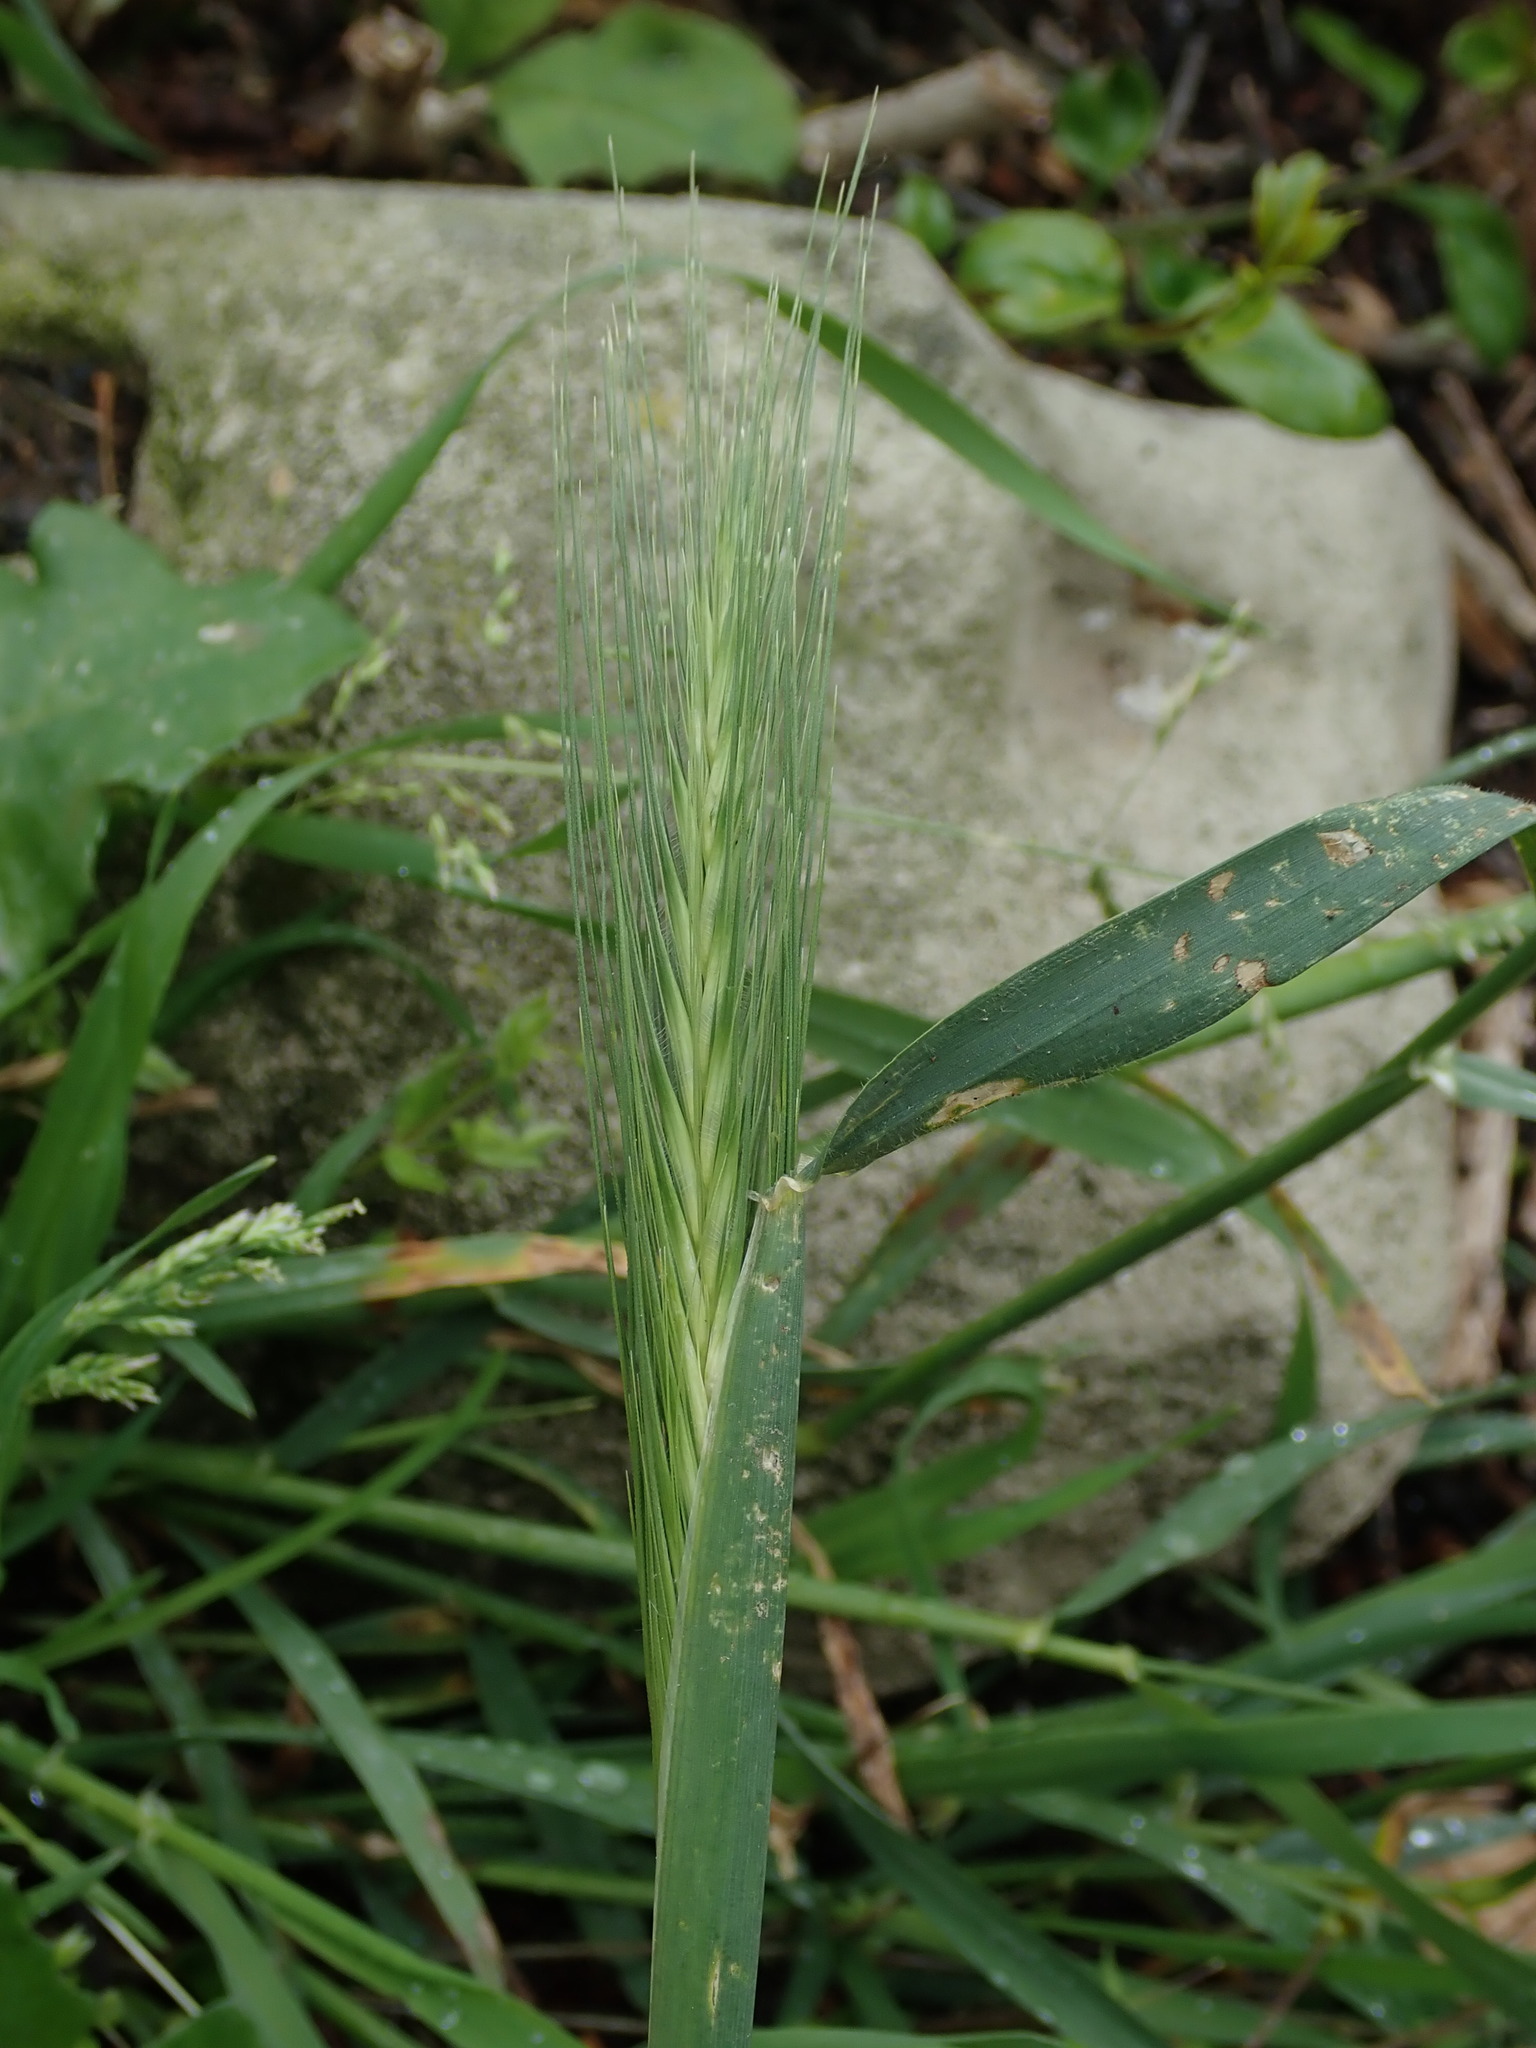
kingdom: Plantae
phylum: Tracheophyta
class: Liliopsida
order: Poales
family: Poaceae
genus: Hordeum
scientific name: Hordeum murinum
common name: Wall barley
